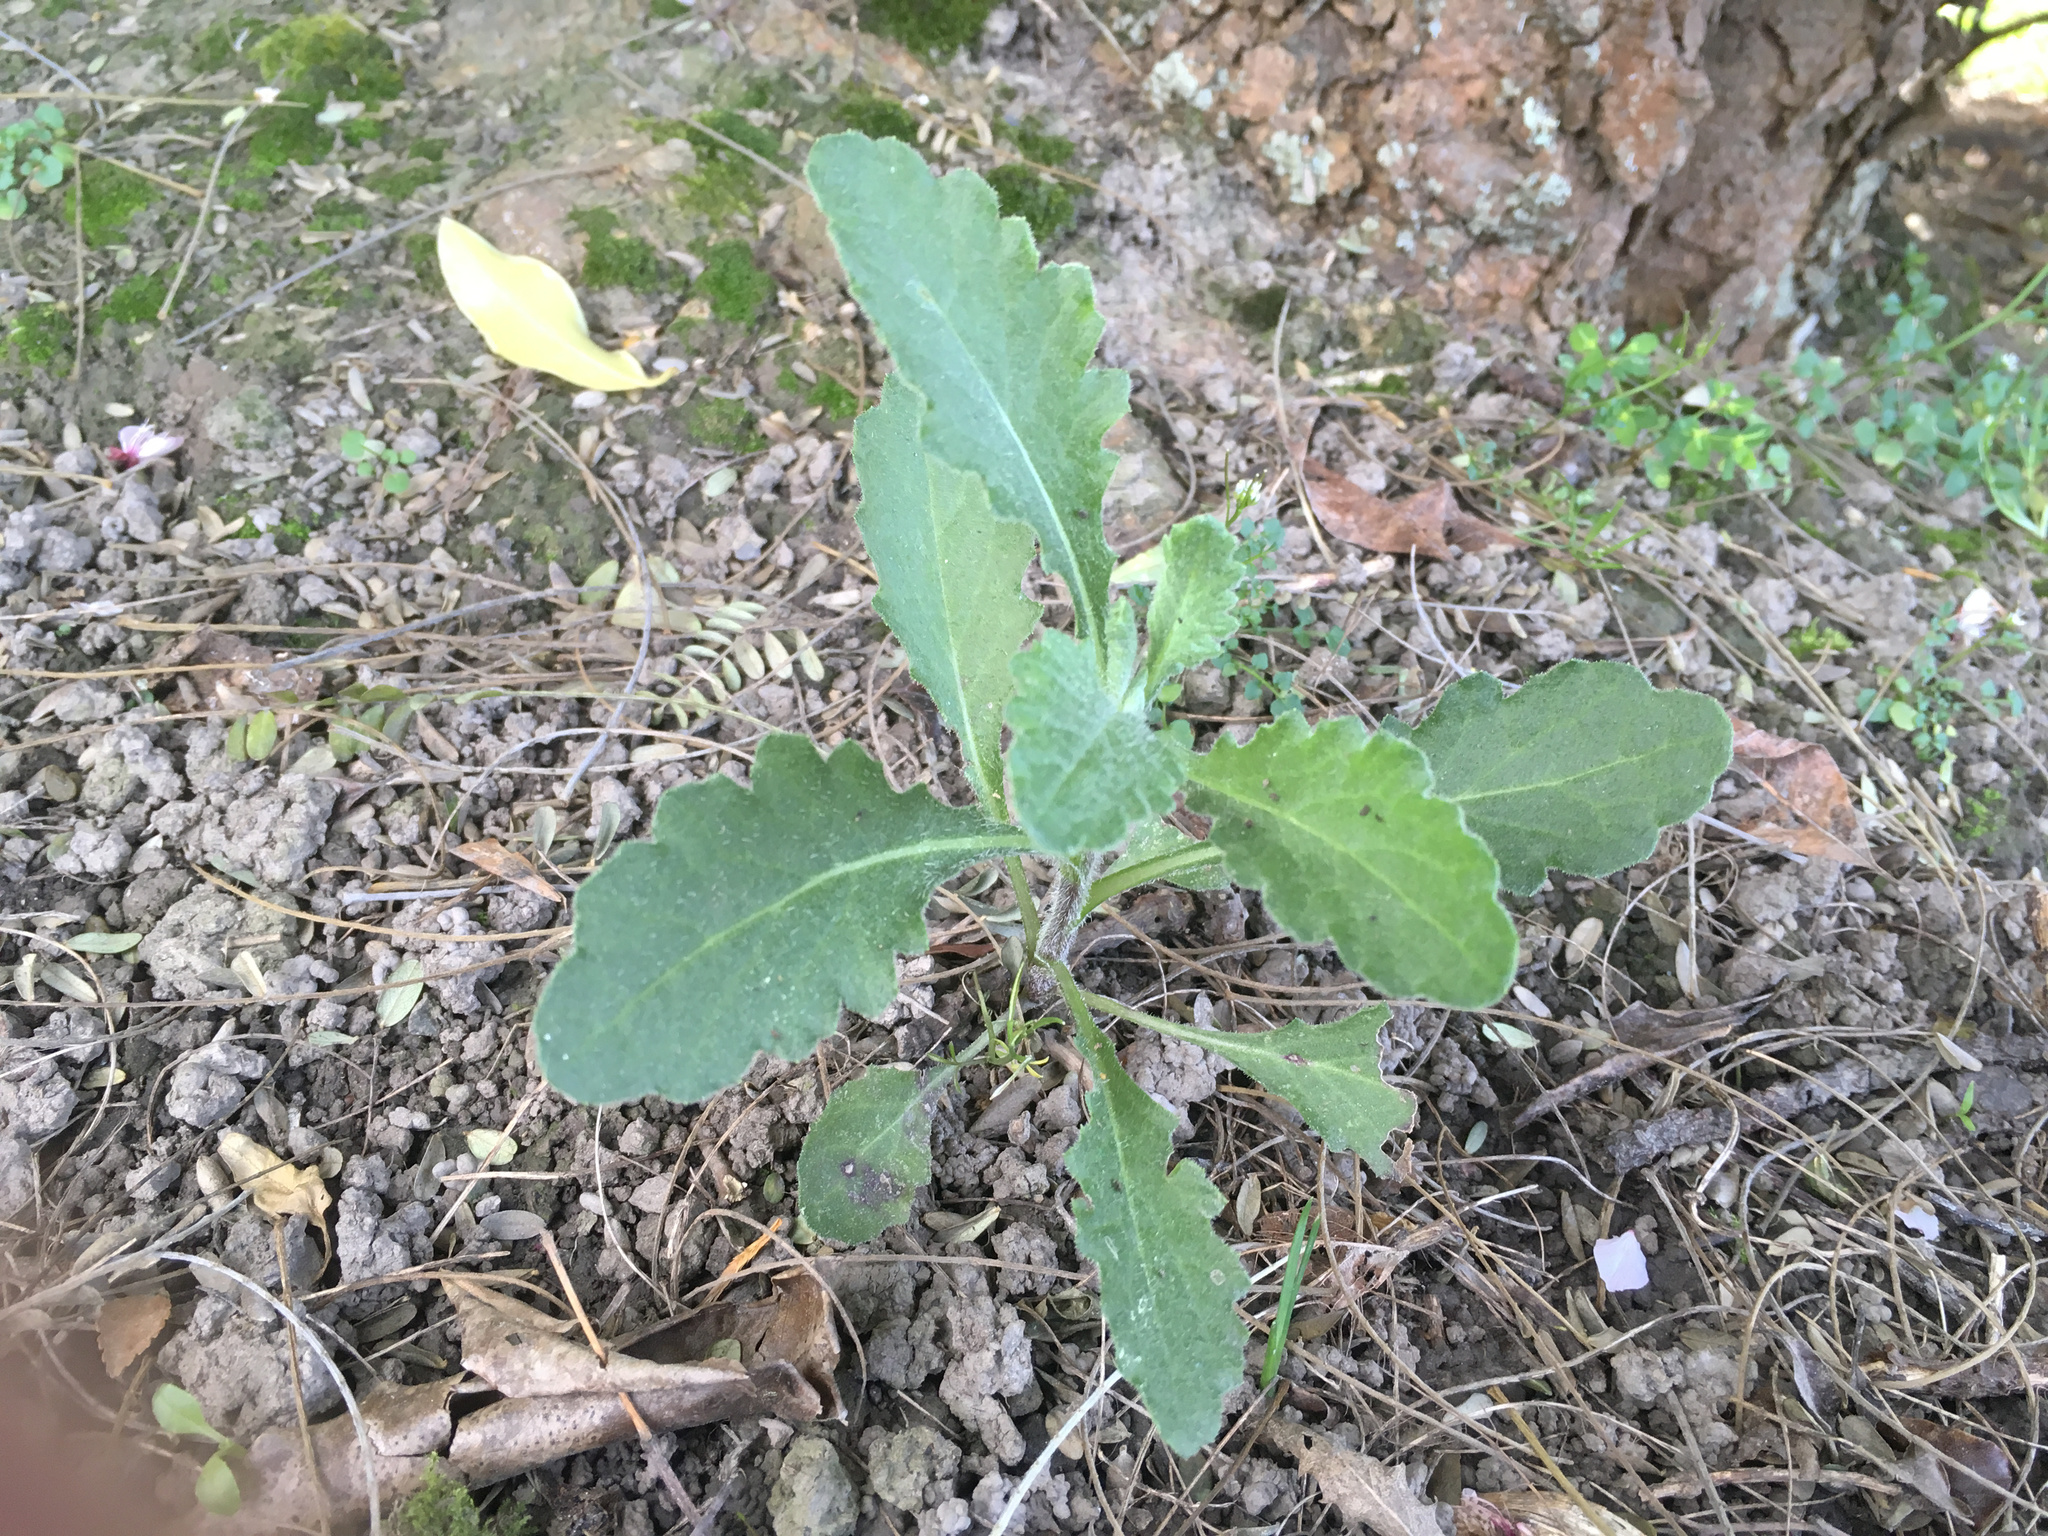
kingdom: Plantae
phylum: Tracheophyta
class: Magnoliopsida
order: Asterales
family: Asteraceae
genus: Senecio
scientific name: Senecio glomeratus
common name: Cutleaf burnweed
